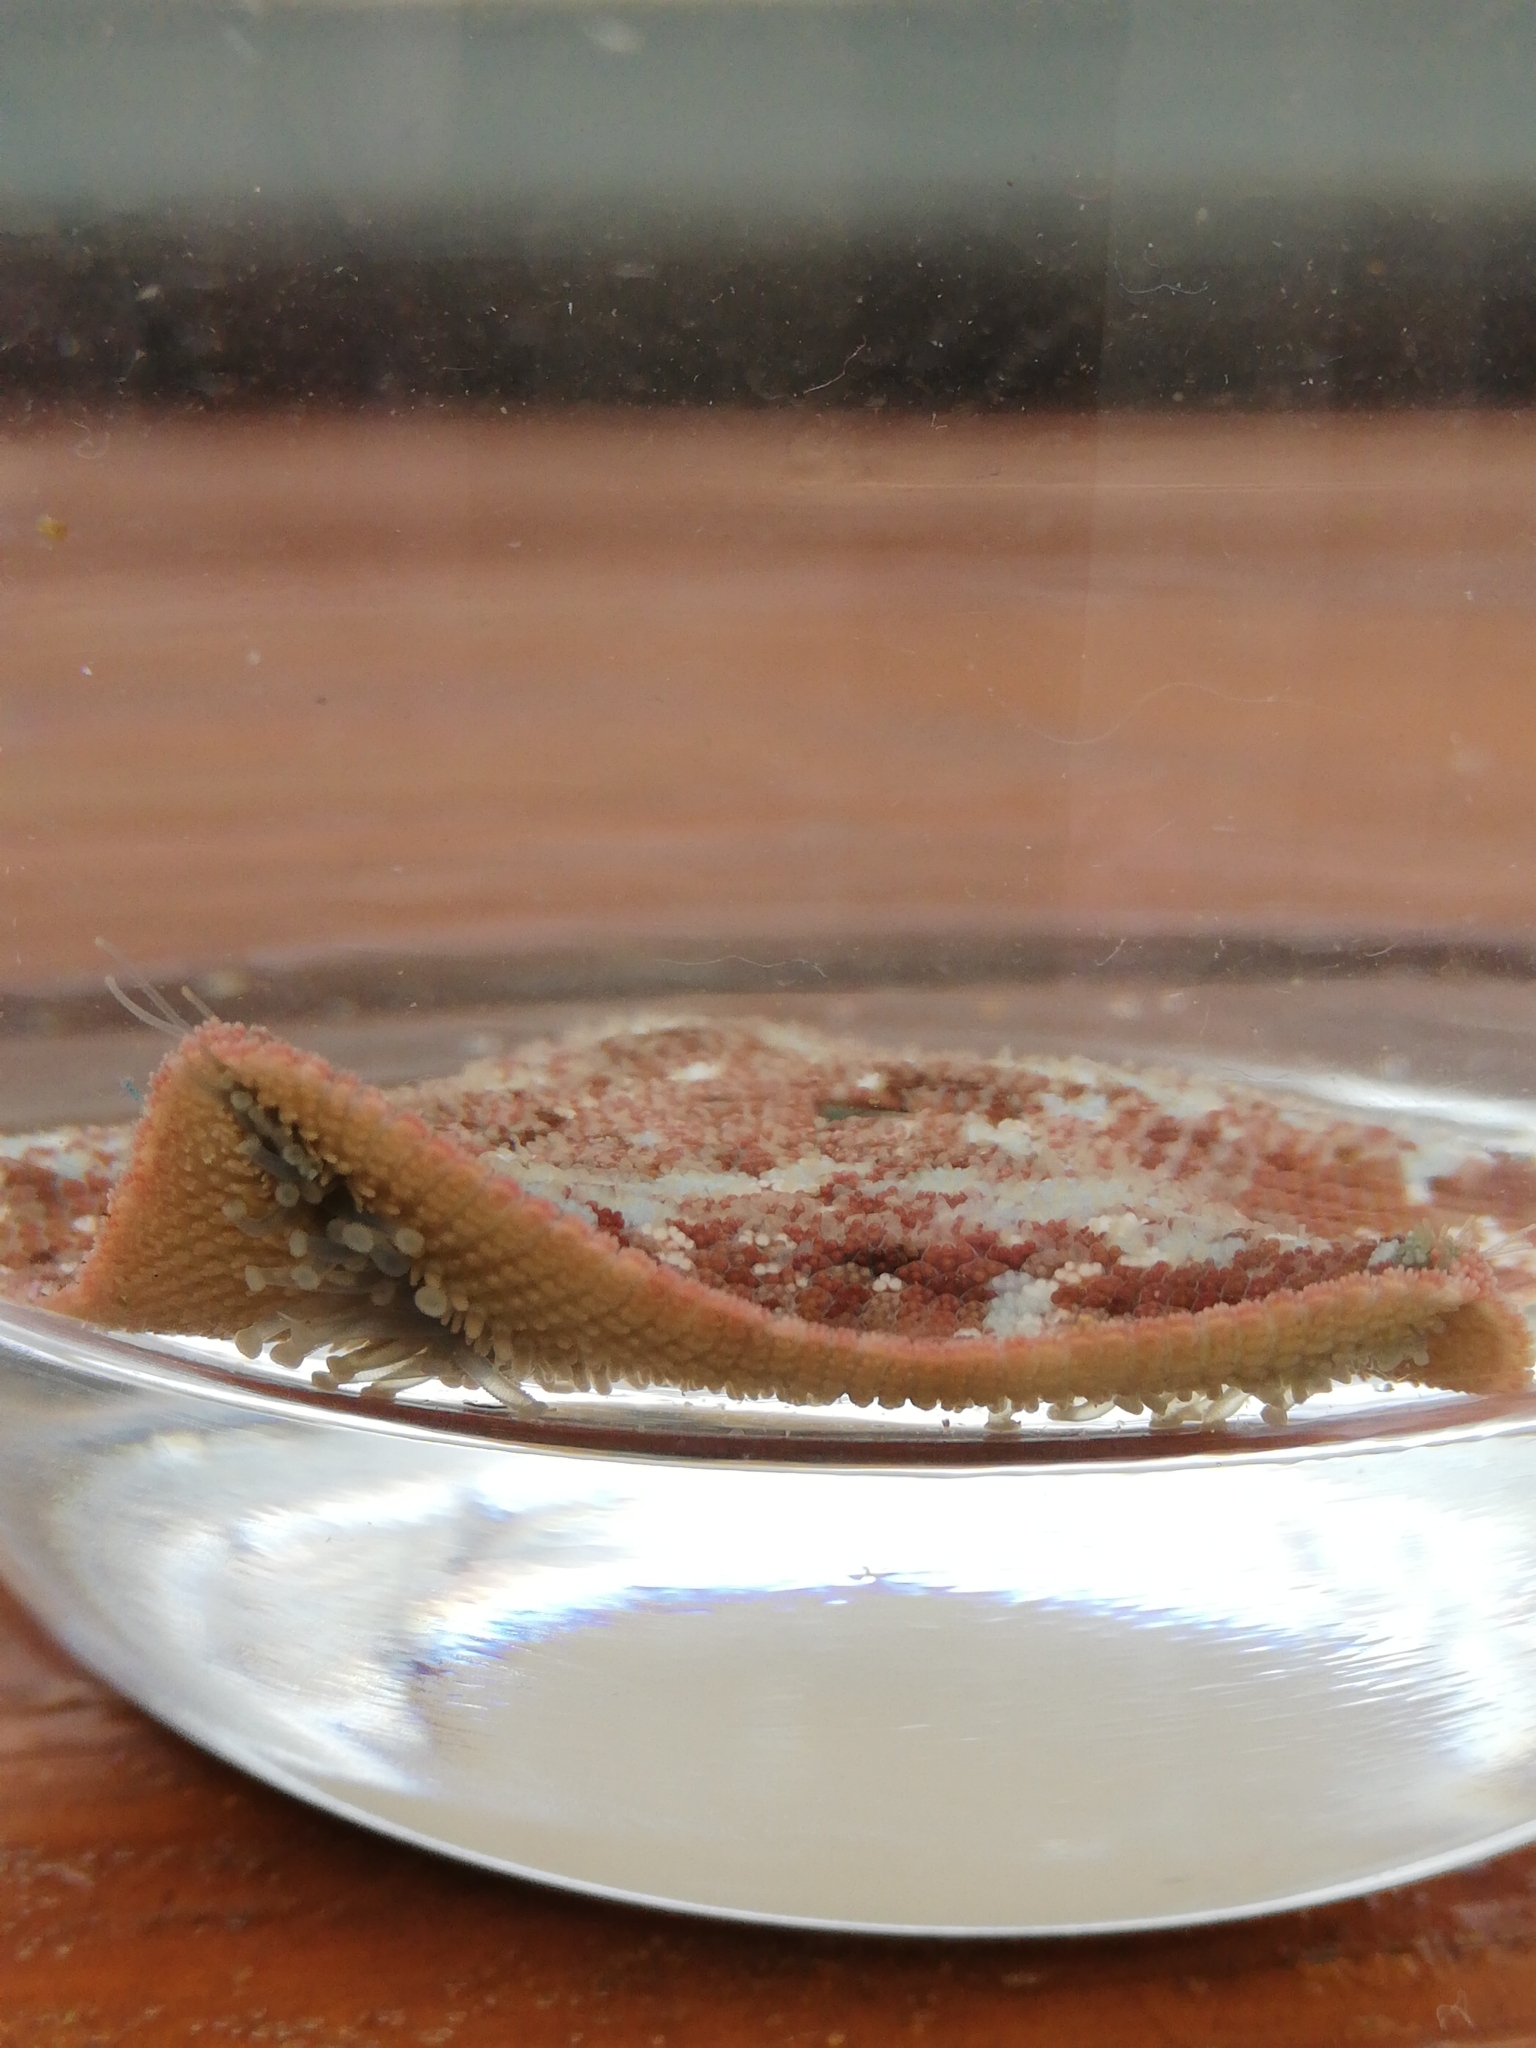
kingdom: Animalia
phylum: Echinodermata
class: Asteroidea
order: Valvatida
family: Asterinidae
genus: Parvulastra
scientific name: Parvulastra exigua
